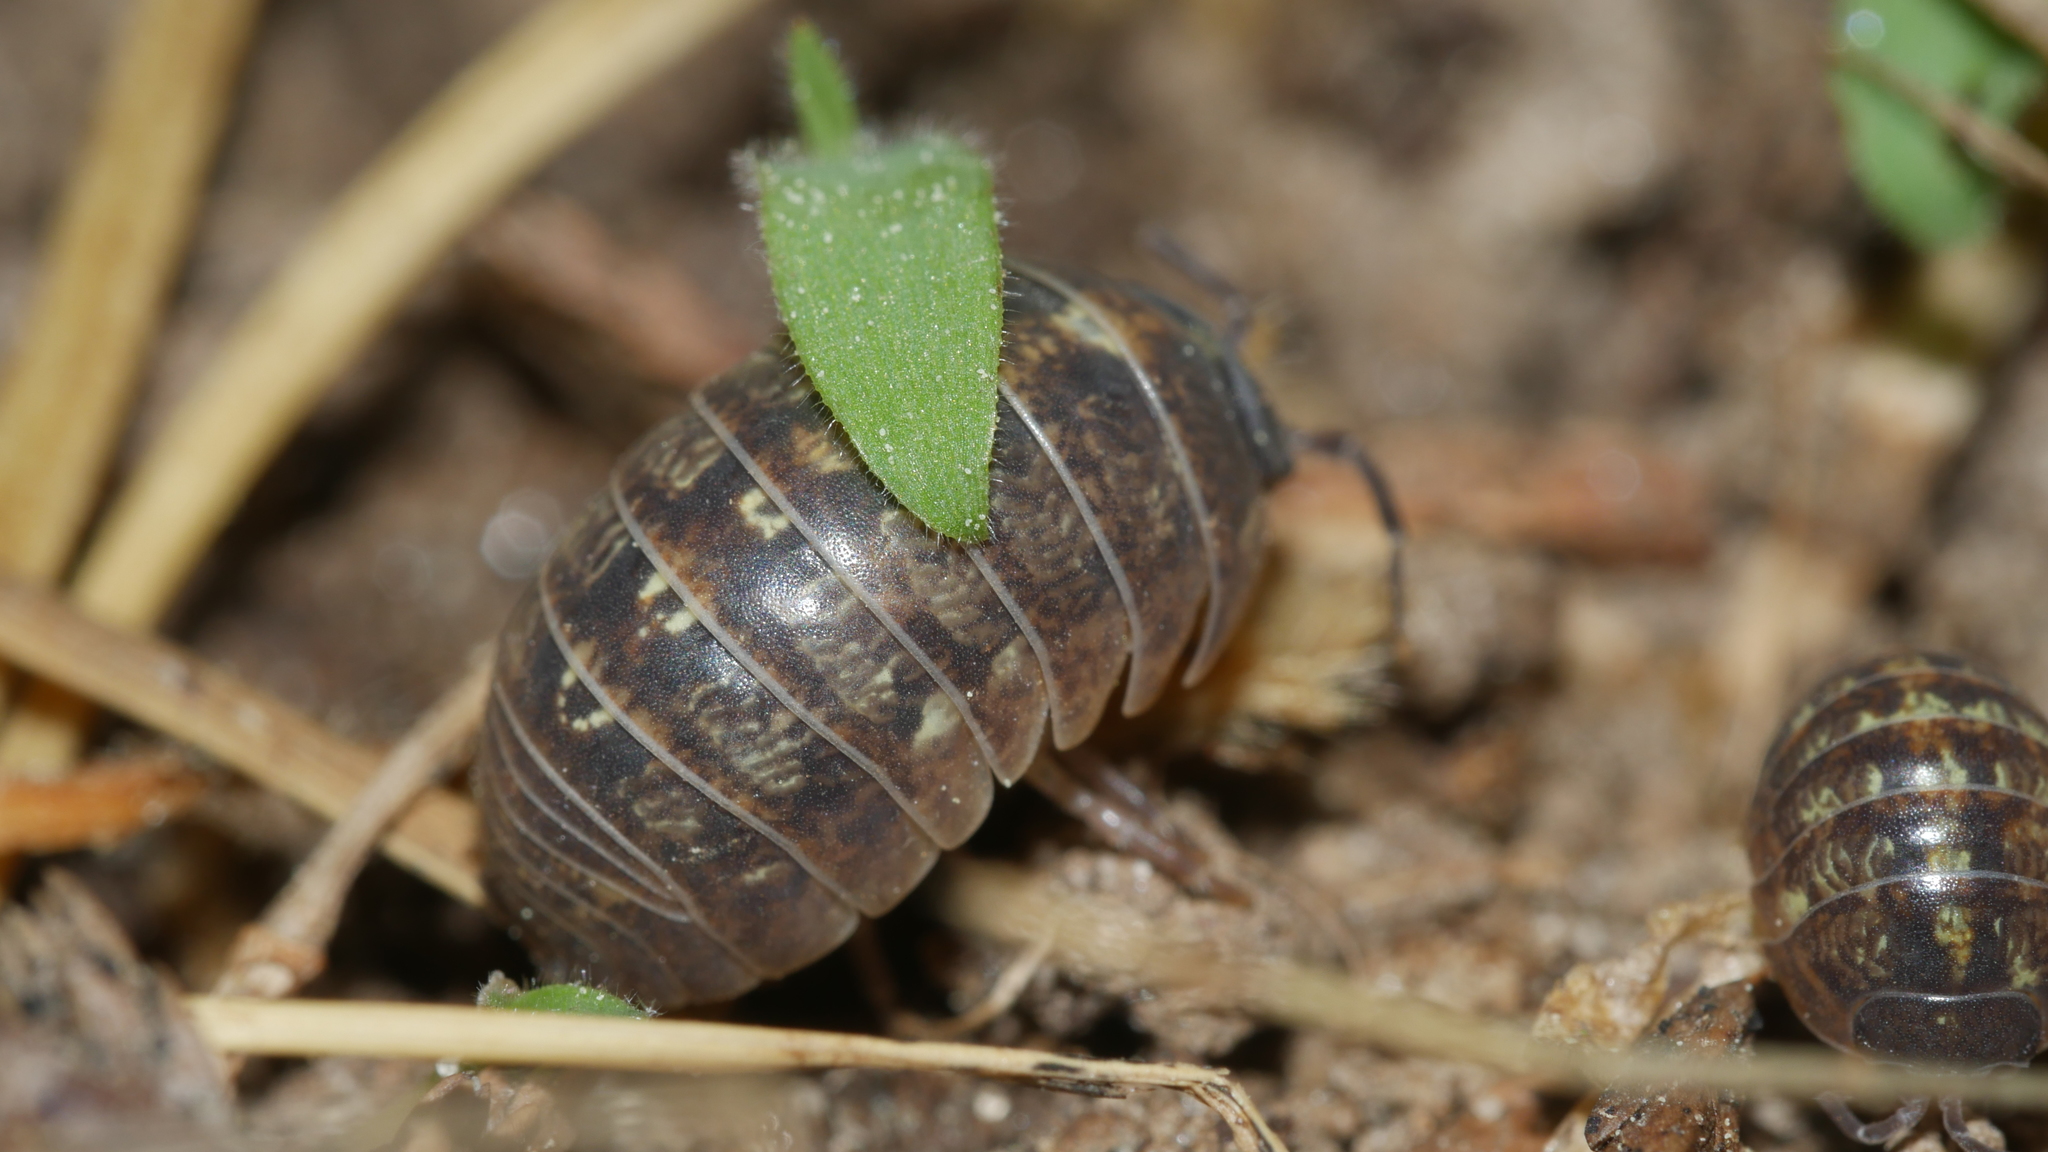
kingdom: Animalia
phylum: Arthropoda
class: Malacostraca
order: Isopoda
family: Armadillidiidae
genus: Armadillidium
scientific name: Armadillidium vulgare
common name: Common pill woodlouse
